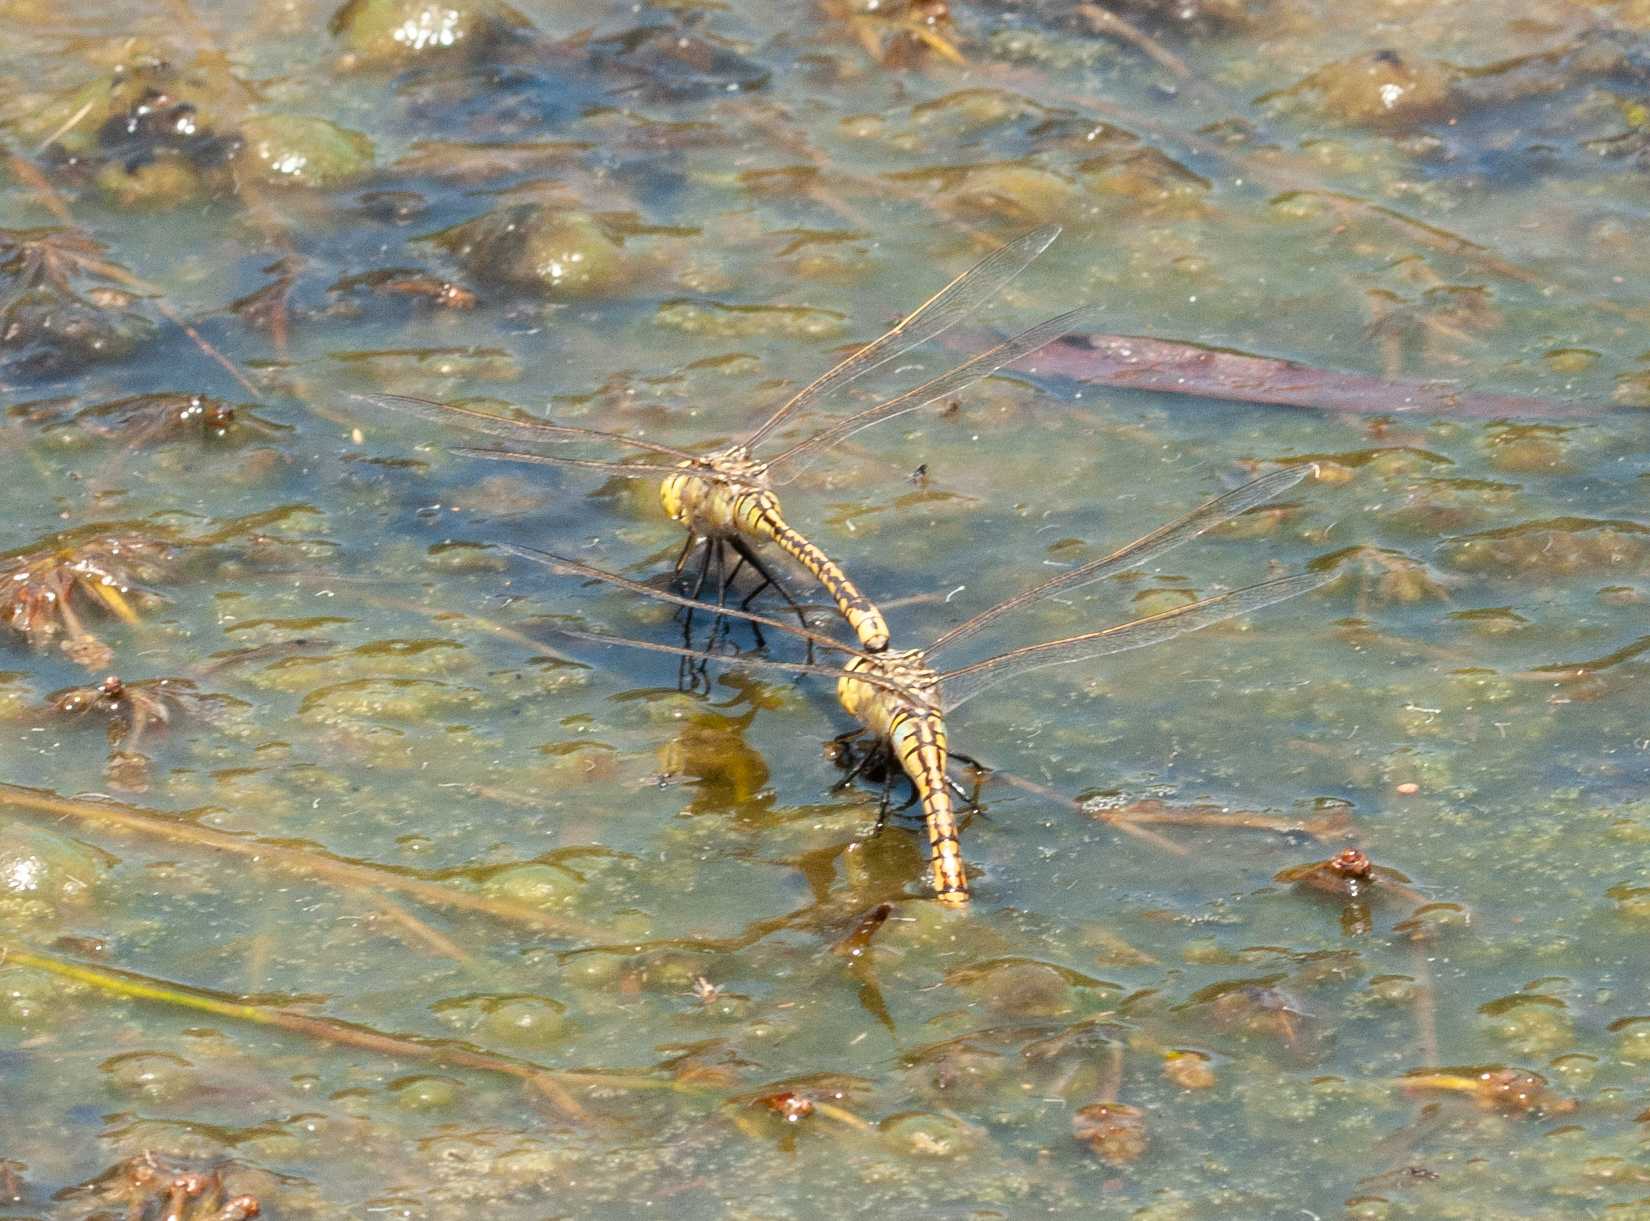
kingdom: Animalia
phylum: Arthropoda
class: Insecta
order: Odonata
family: Aeshnidae
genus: Anax
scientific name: Anax papuensis
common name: Australian emperor
